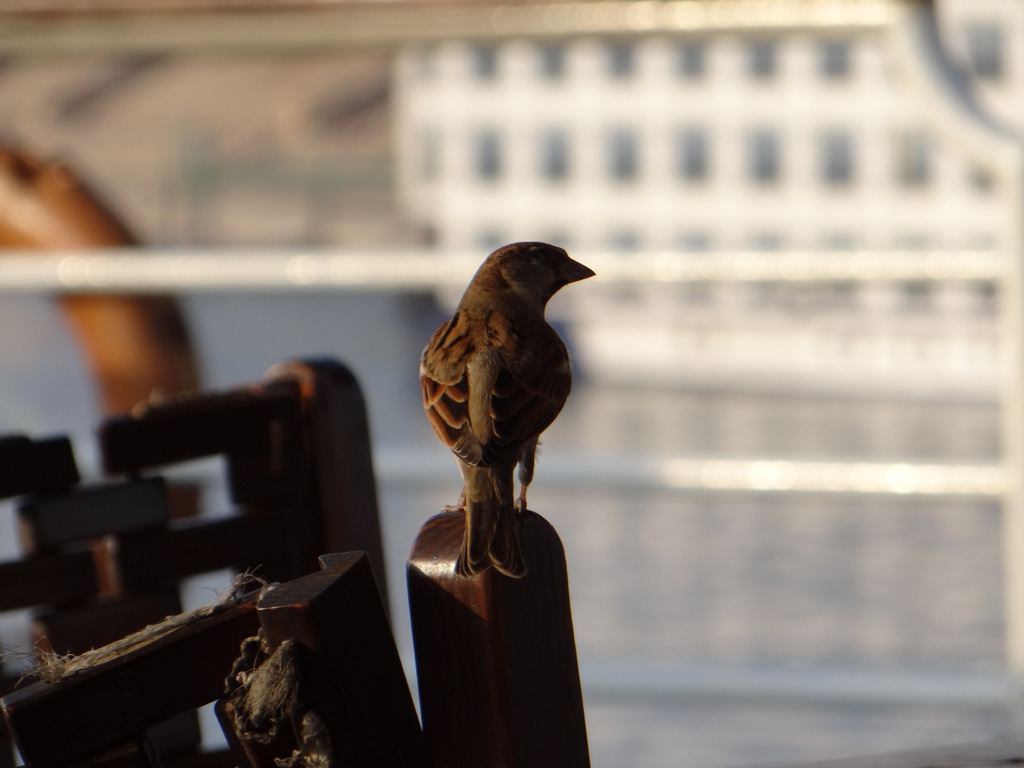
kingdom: Animalia
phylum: Chordata
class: Aves
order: Passeriformes
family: Passeridae
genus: Passer
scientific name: Passer domesticus
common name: House sparrow
